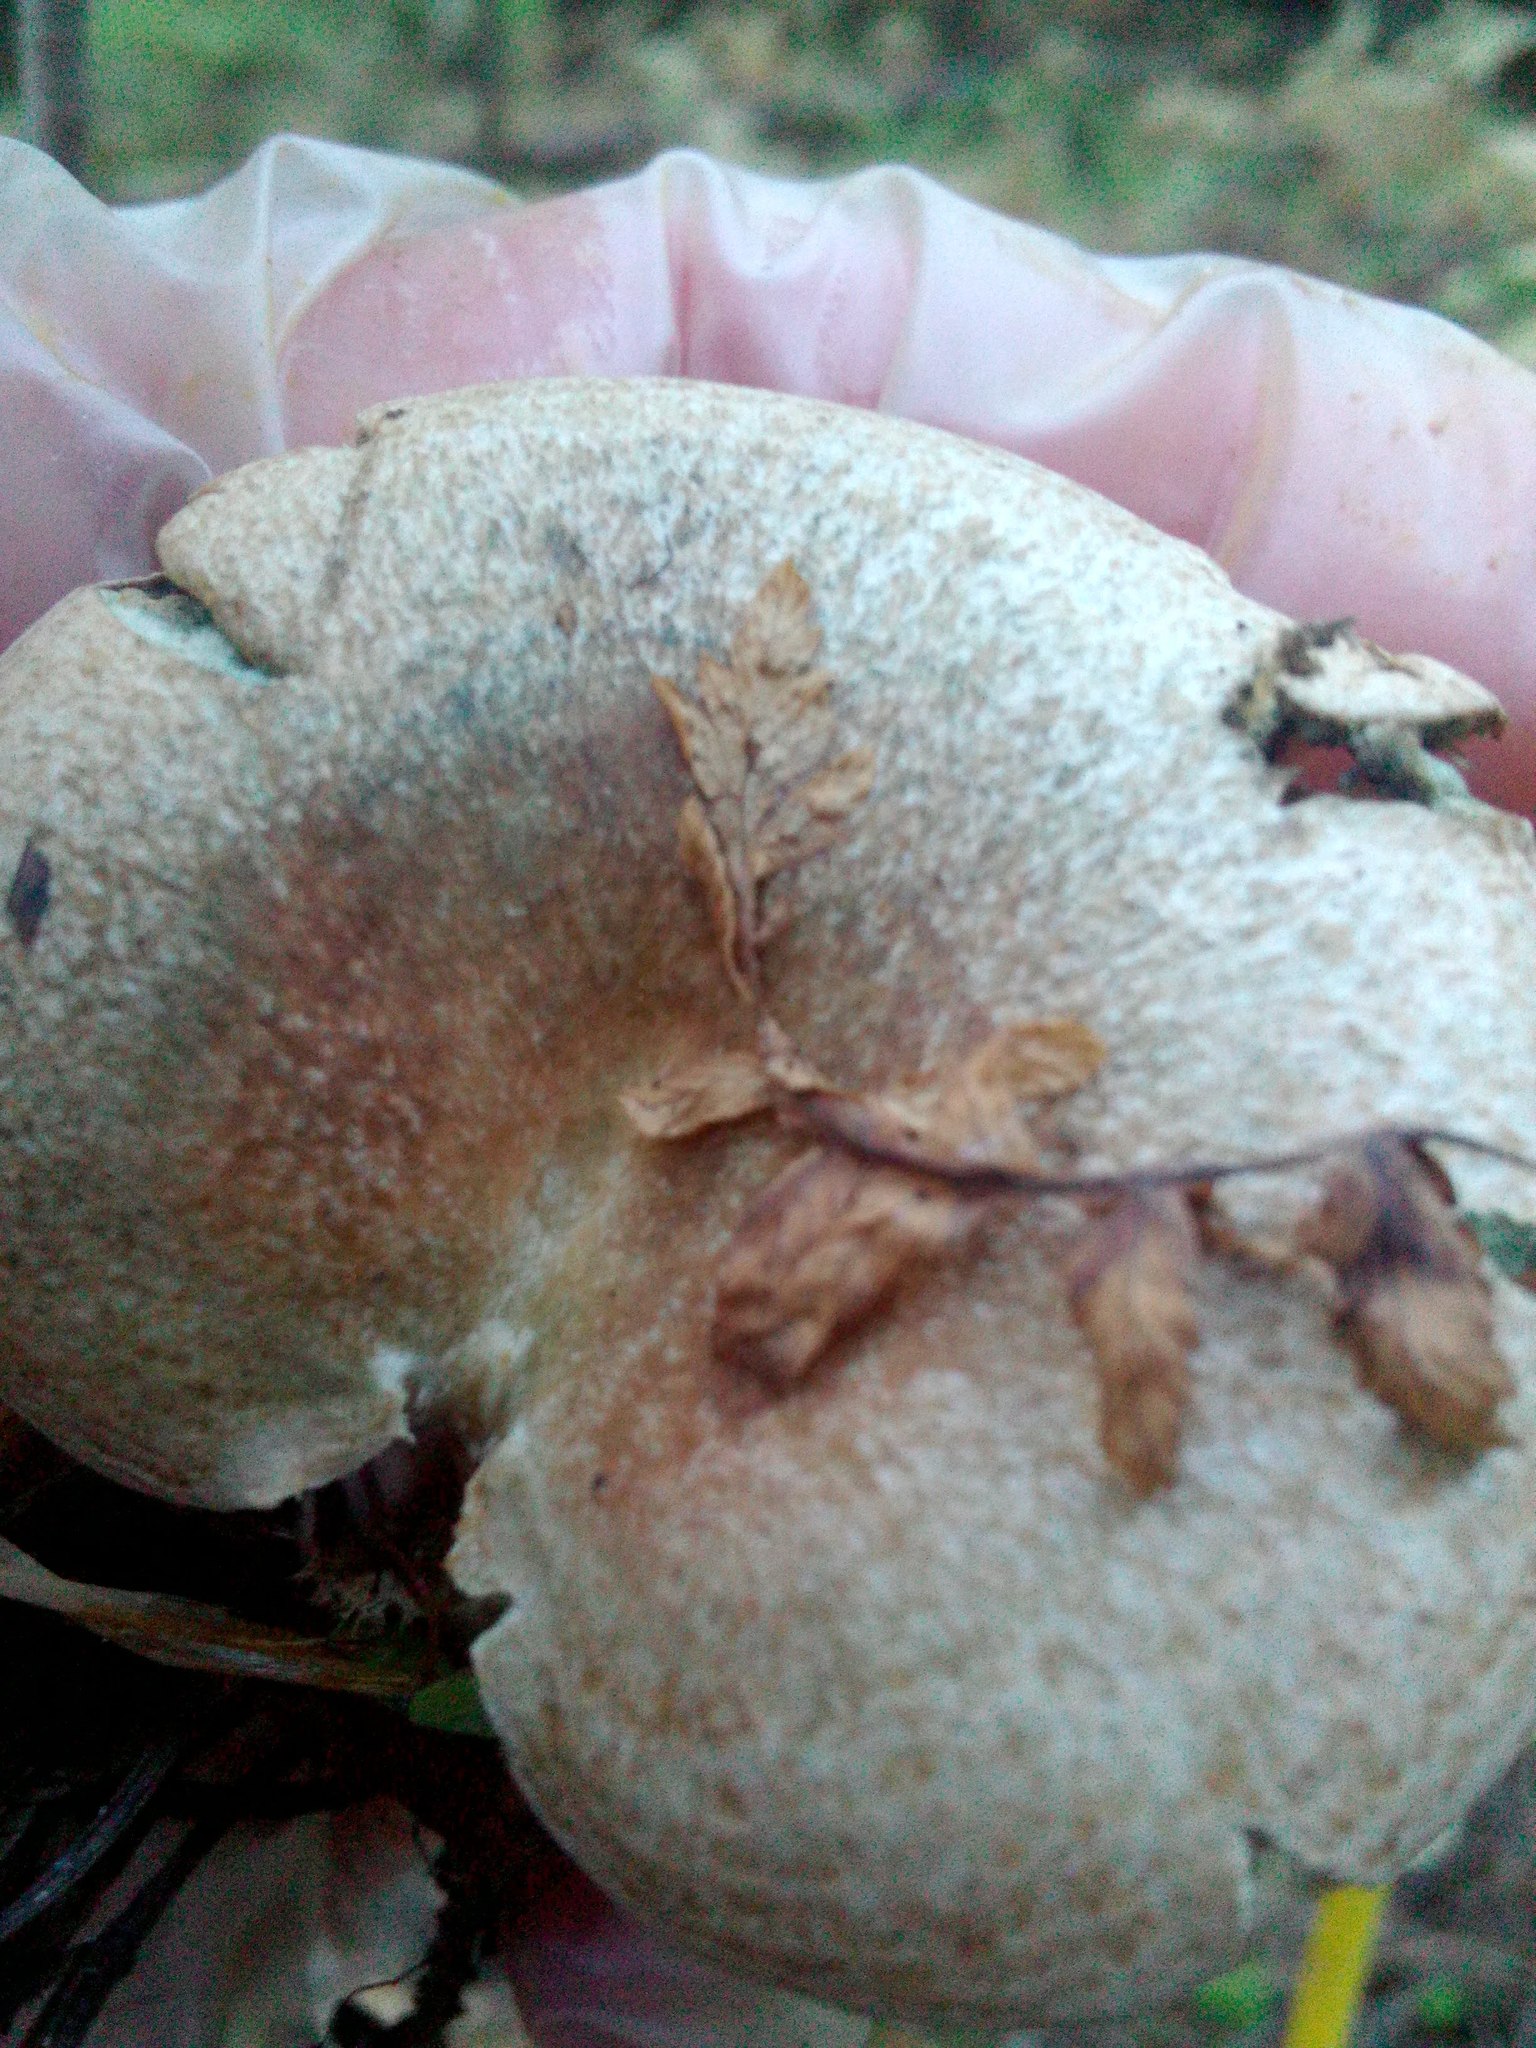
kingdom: Fungi
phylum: Basidiomycota
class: Agaricomycetes
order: Russulales
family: Russulaceae
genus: Lactarius
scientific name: Lactarius deliciosus
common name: Saffron milk-cap
